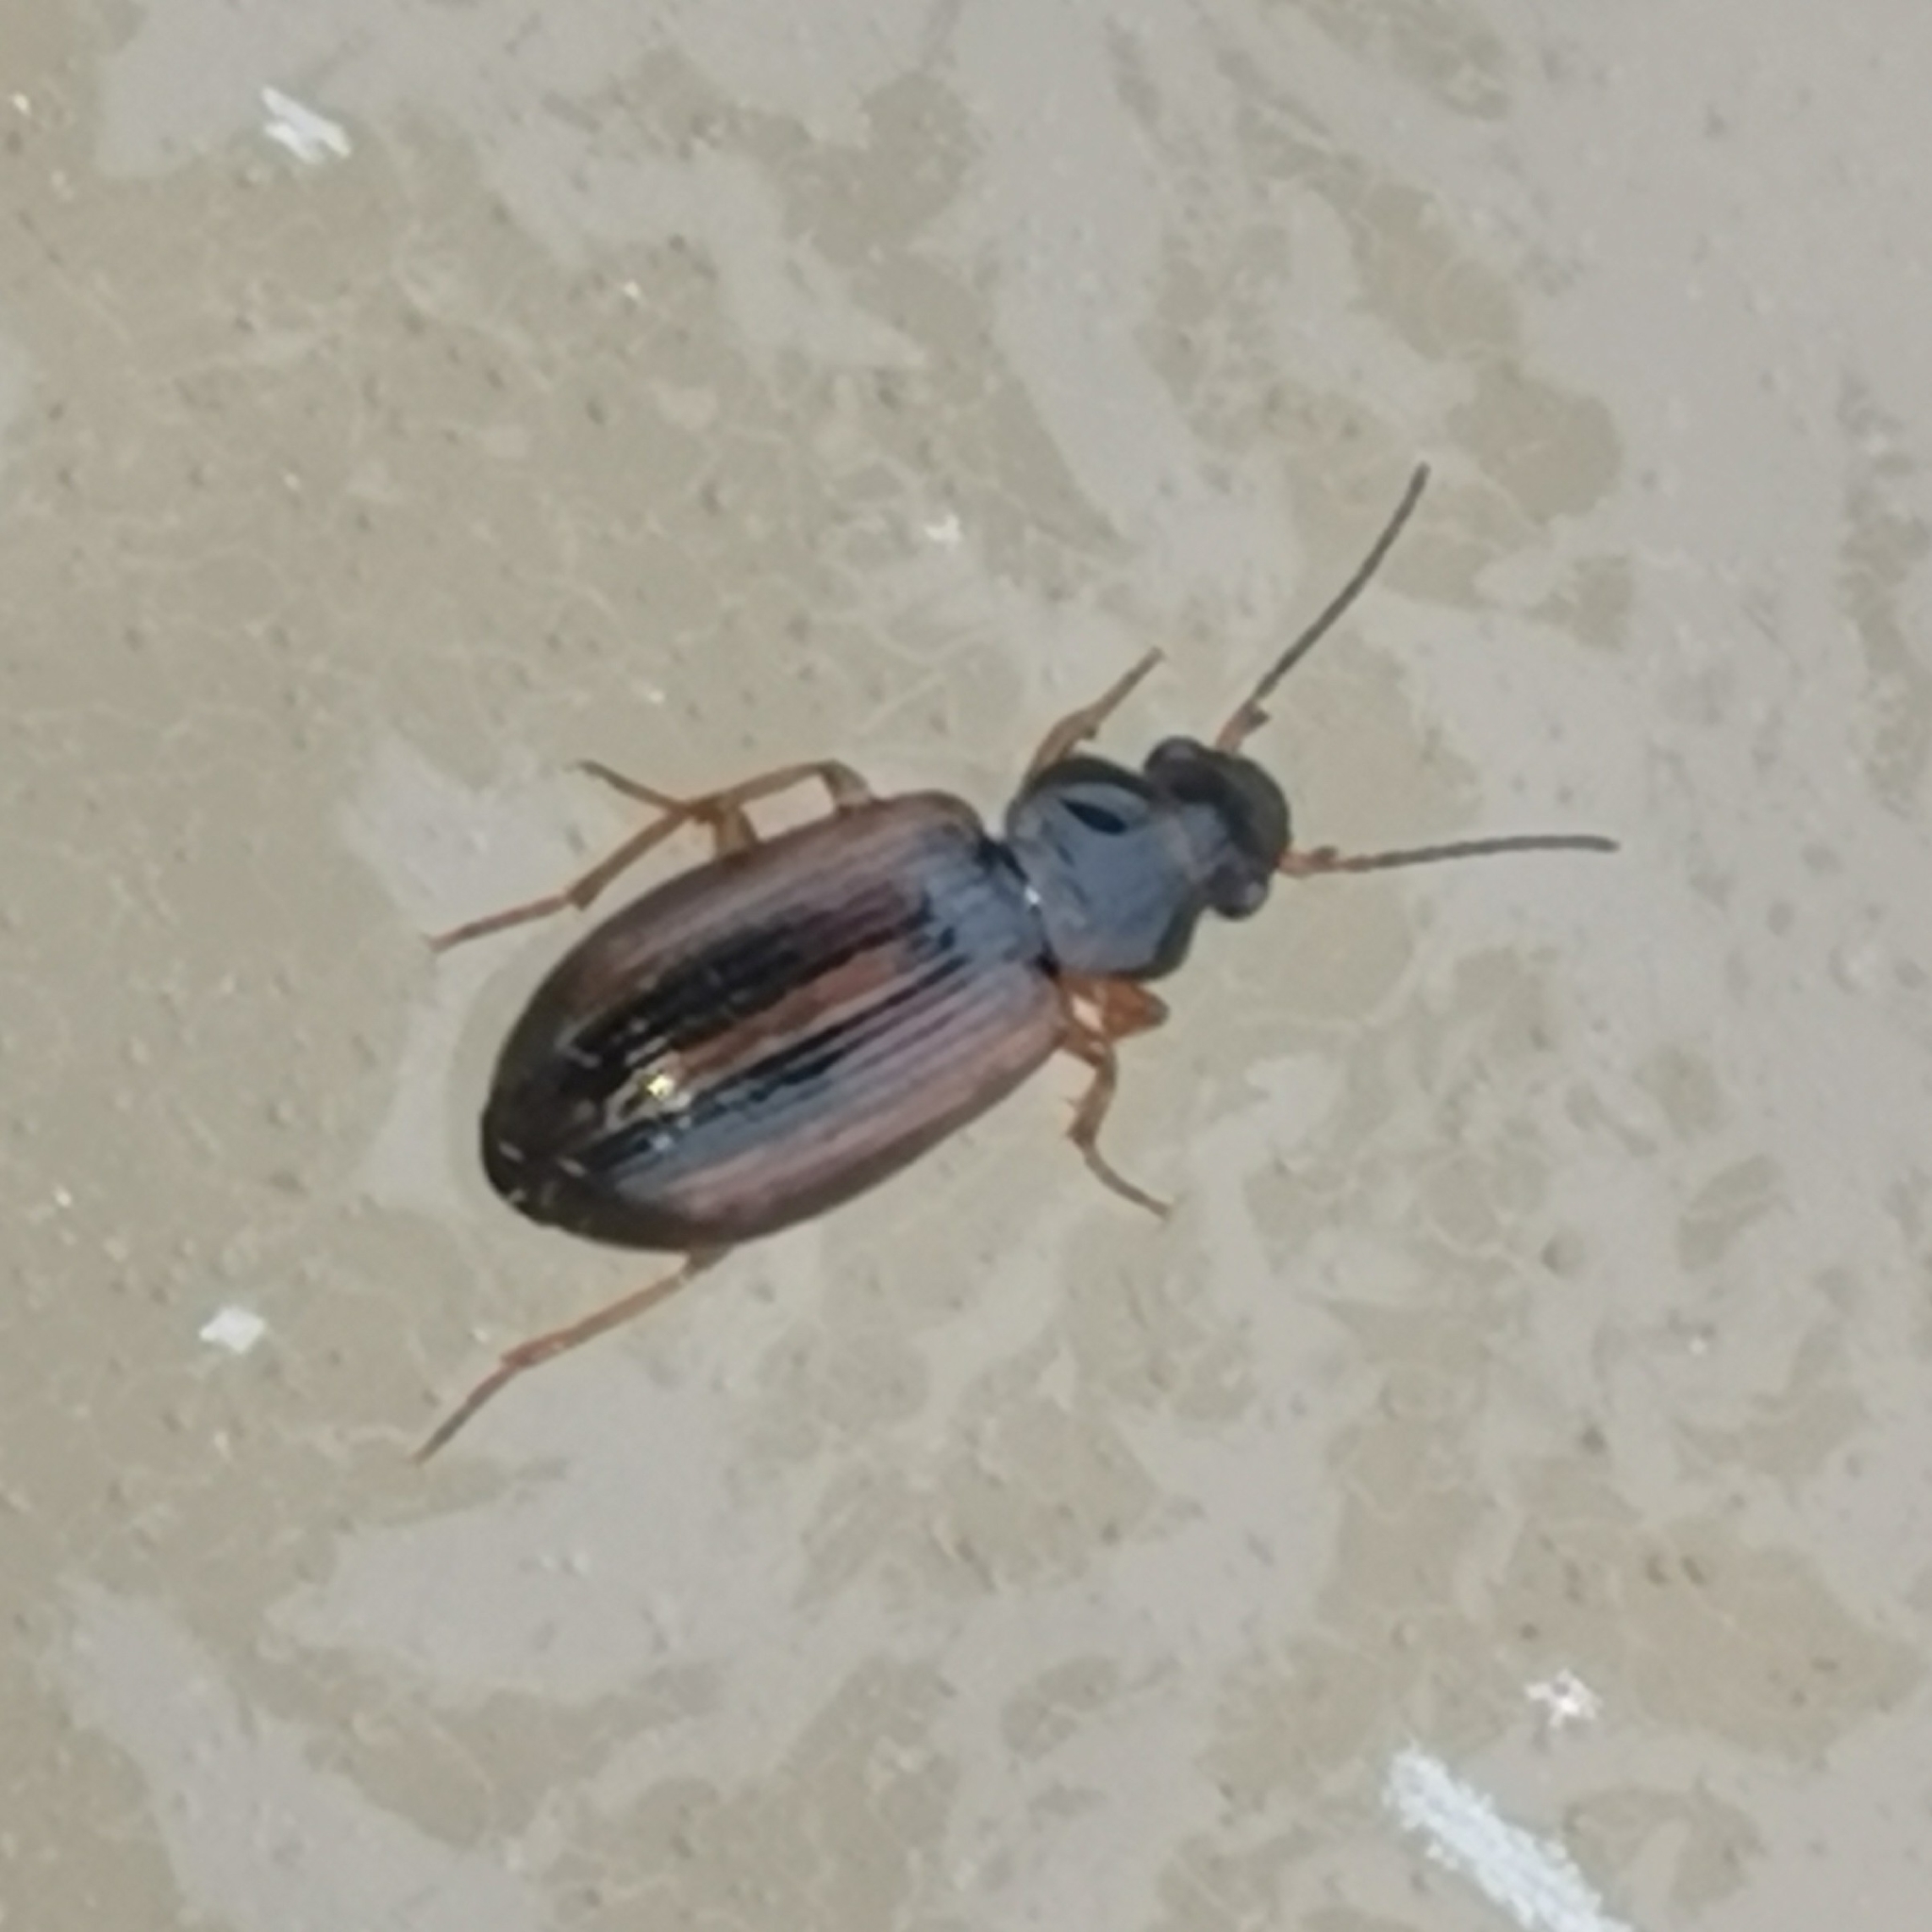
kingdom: Animalia
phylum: Arthropoda
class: Insecta
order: Coleoptera
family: Carabidae
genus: Dicheirotrichus
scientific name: Dicheirotrichus placidus
